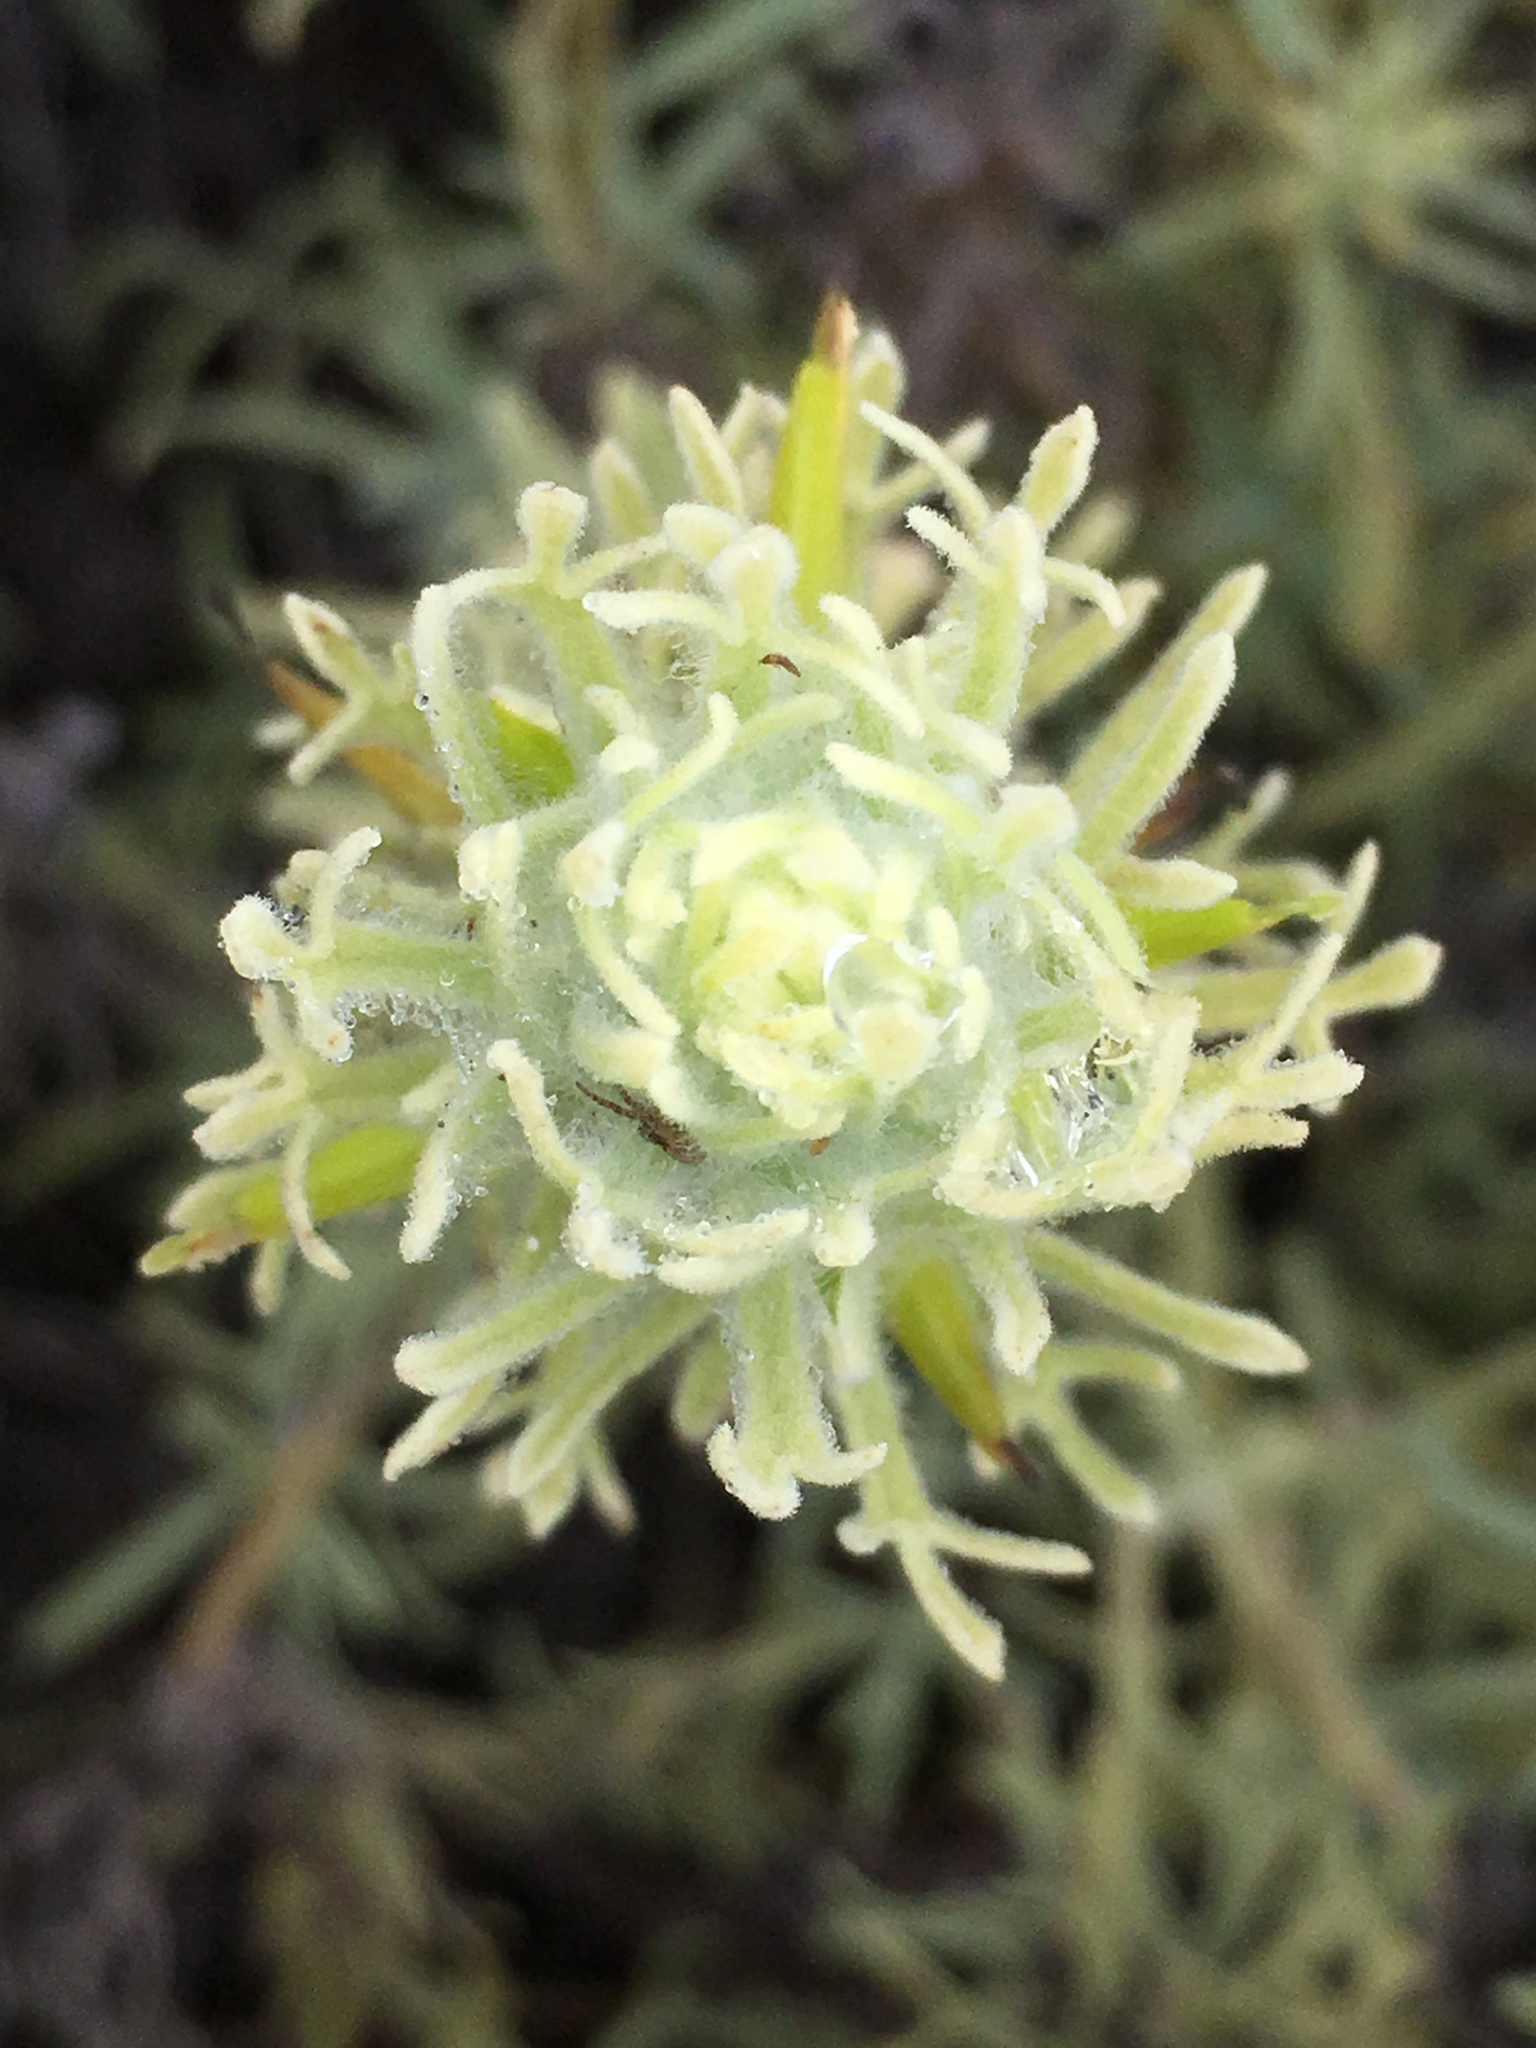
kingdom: Plantae
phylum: Tracheophyta
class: Magnoliopsida
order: Lamiales
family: Orobanchaceae
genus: Castilleja
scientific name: Castilleja grisea
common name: San clemente island indian paintbrush
